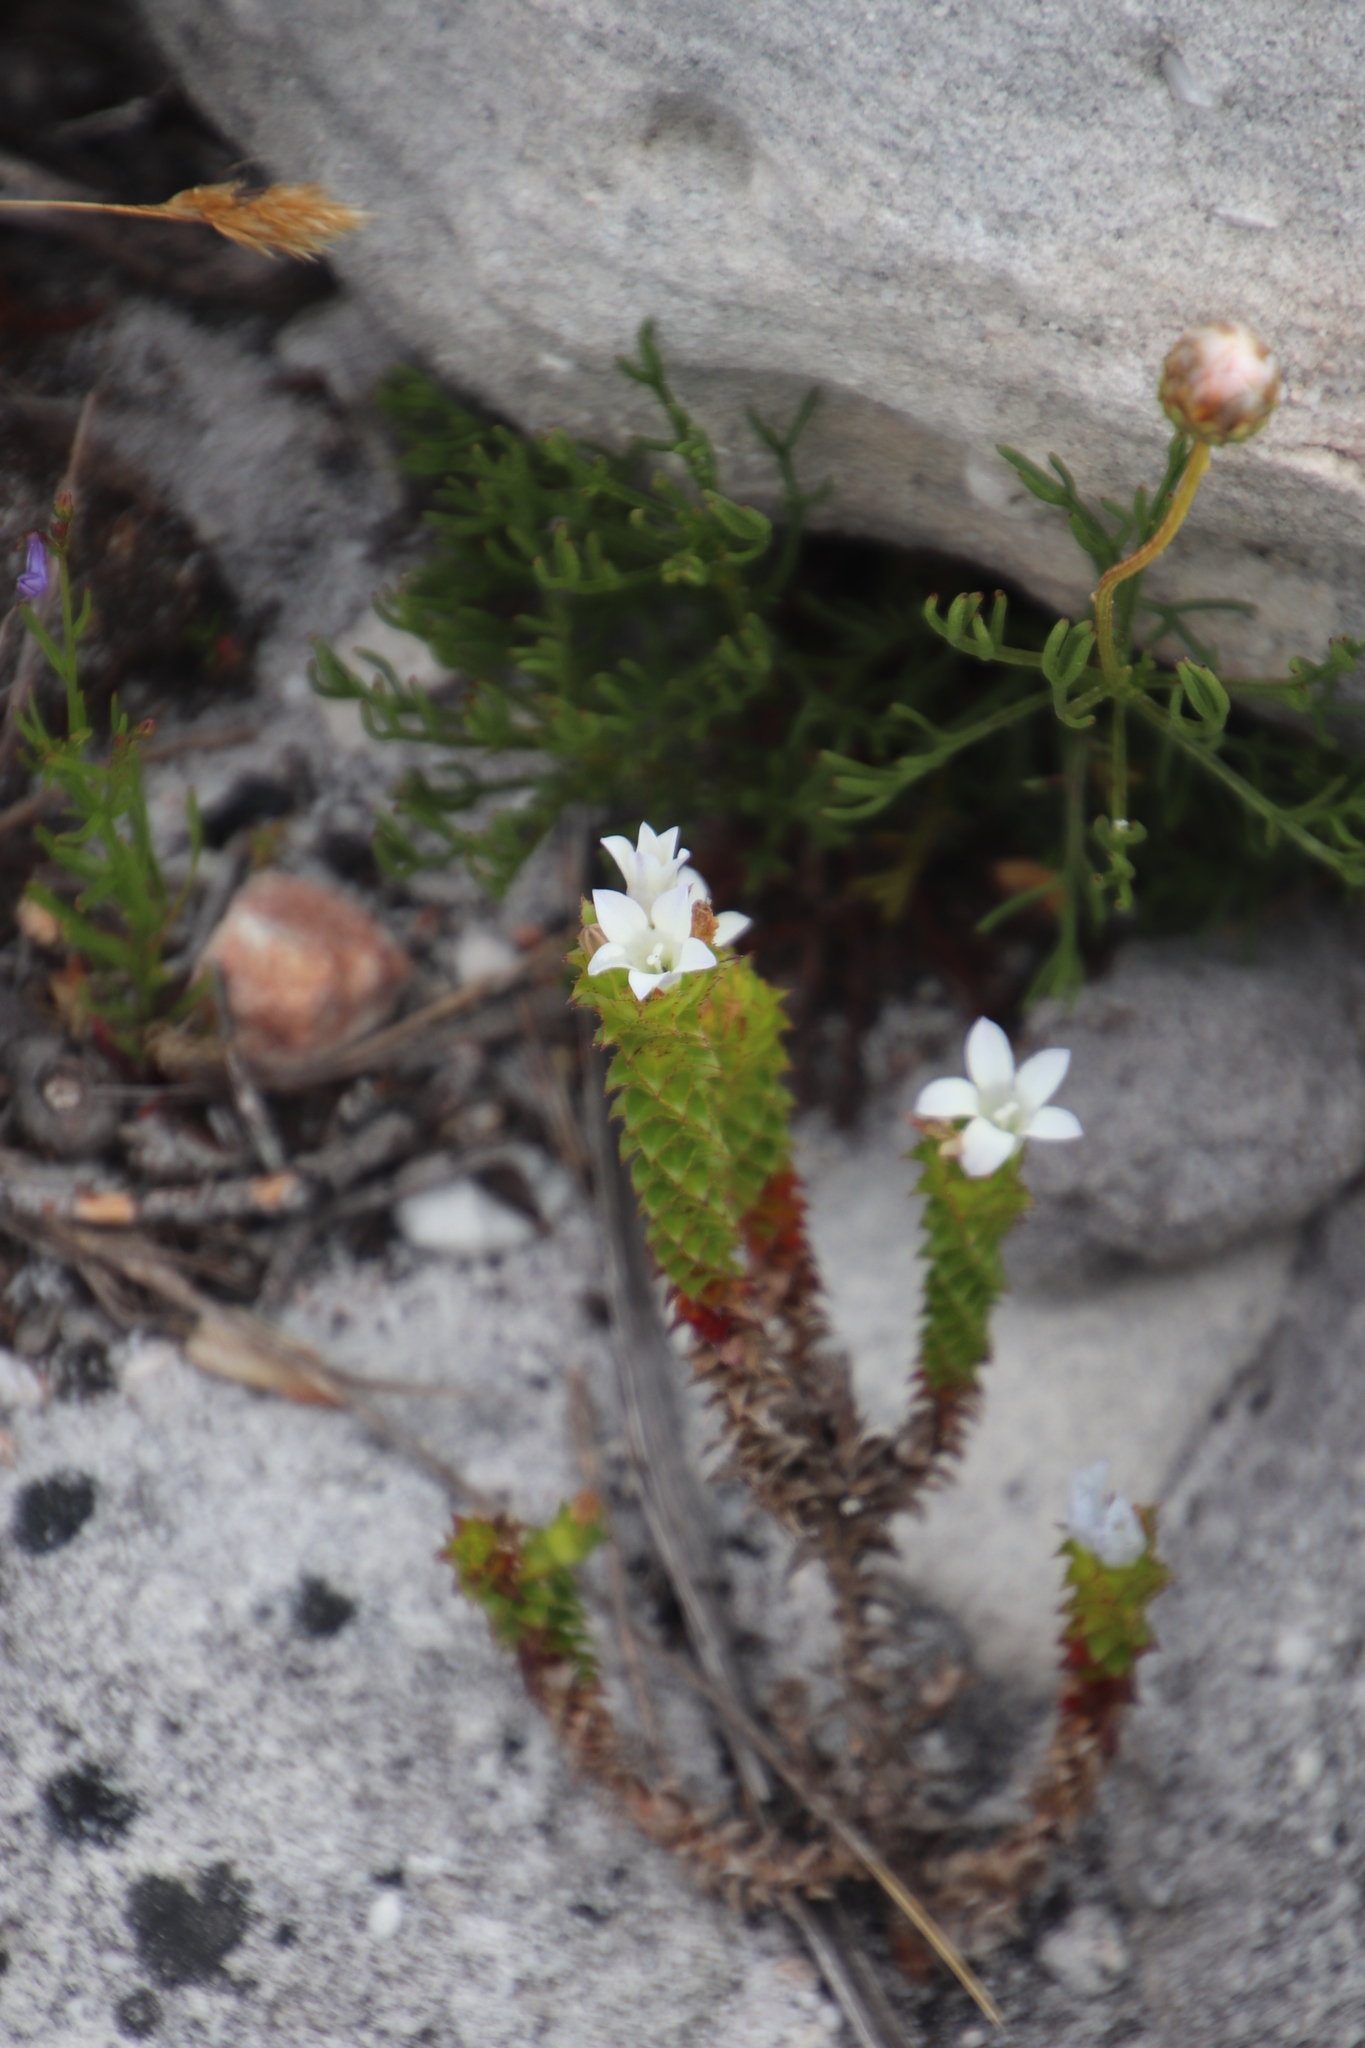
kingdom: Plantae
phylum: Tracheophyta
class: Magnoliopsida
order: Asterales
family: Campanulaceae
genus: Roella
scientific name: Roella amplexicaulis
